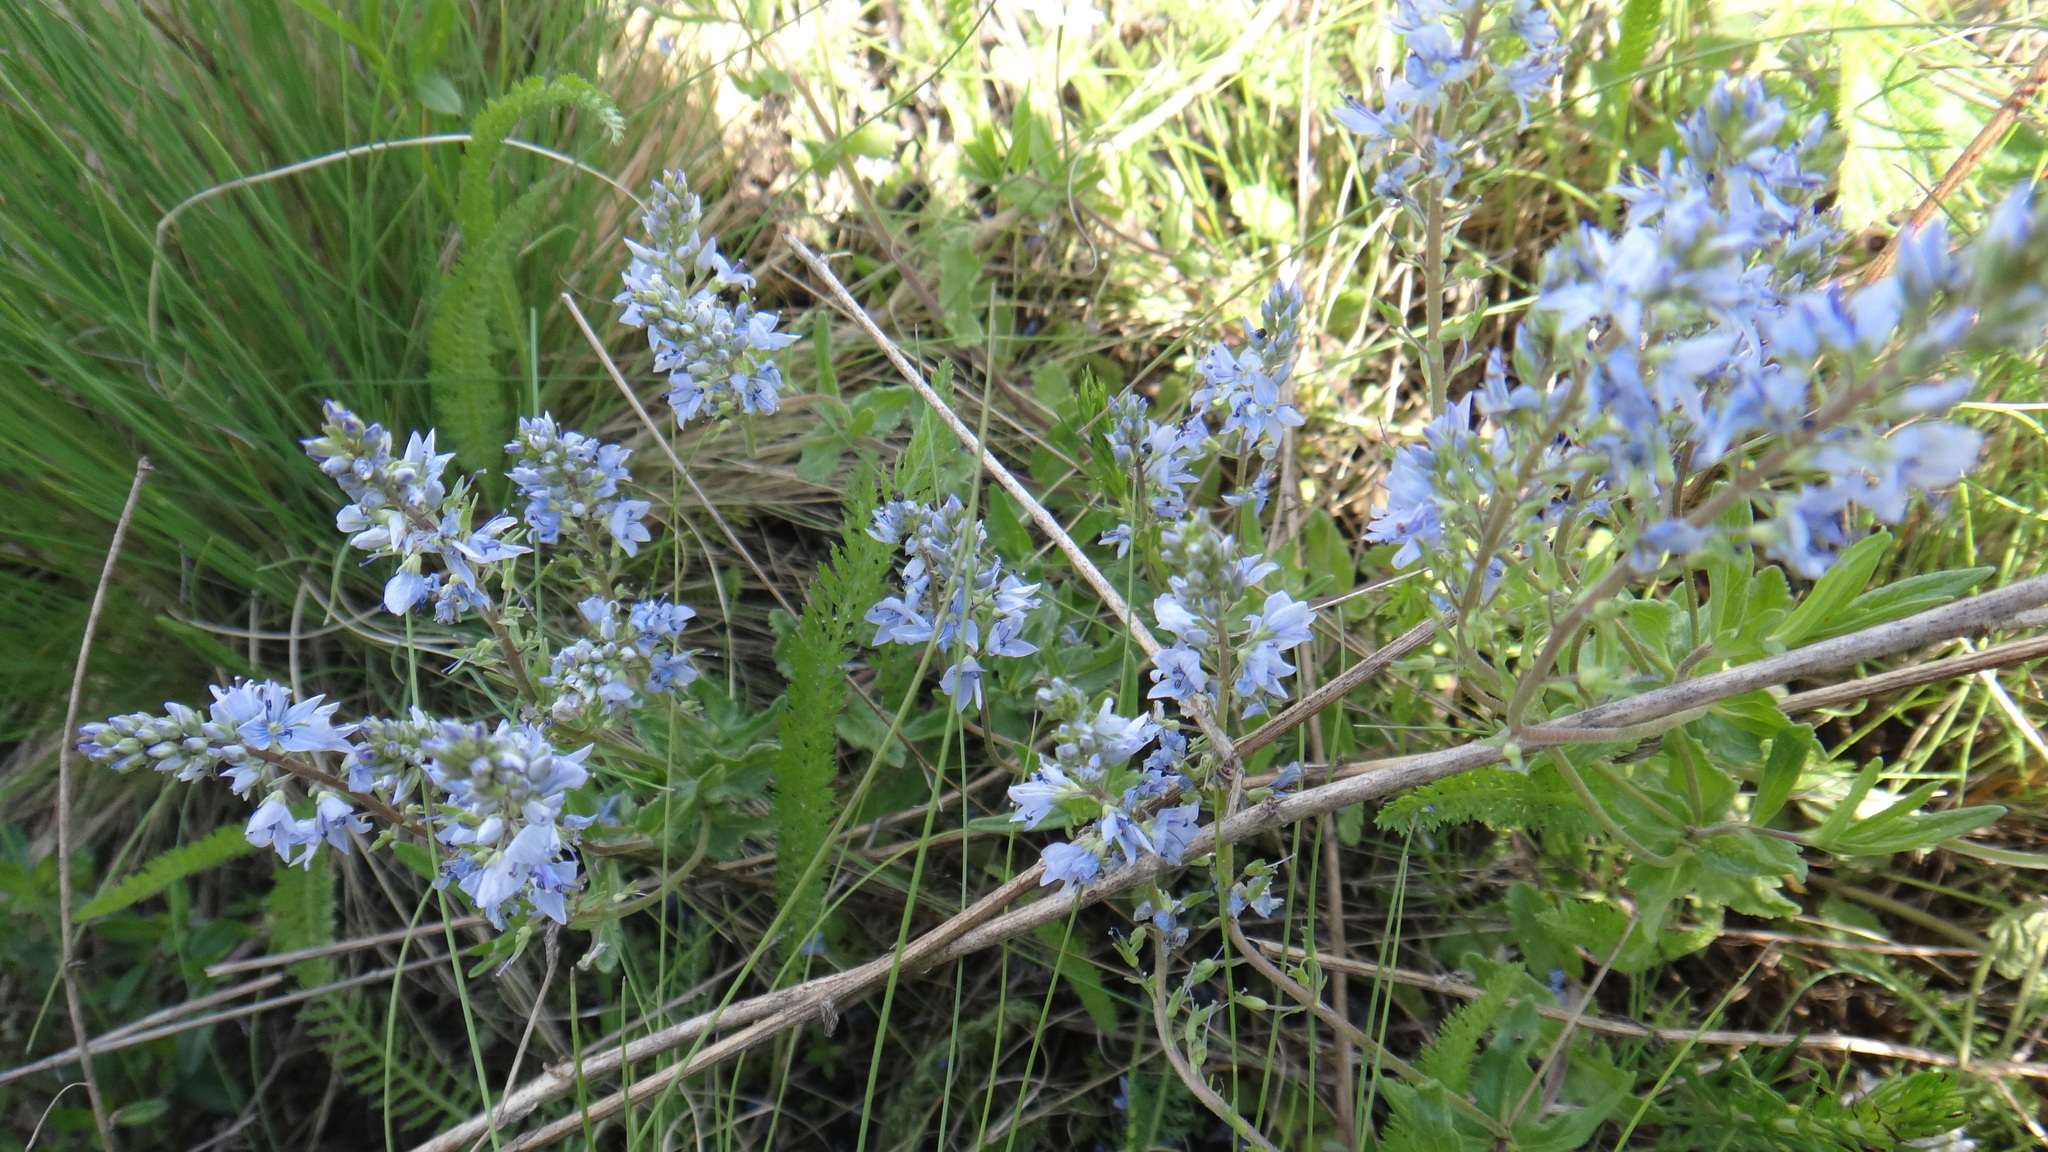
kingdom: Plantae
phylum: Tracheophyta
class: Magnoliopsida
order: Lamiales
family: Plantaginaceae
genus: Veronica
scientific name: Veronica prostrata
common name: Prostrate speedwell
